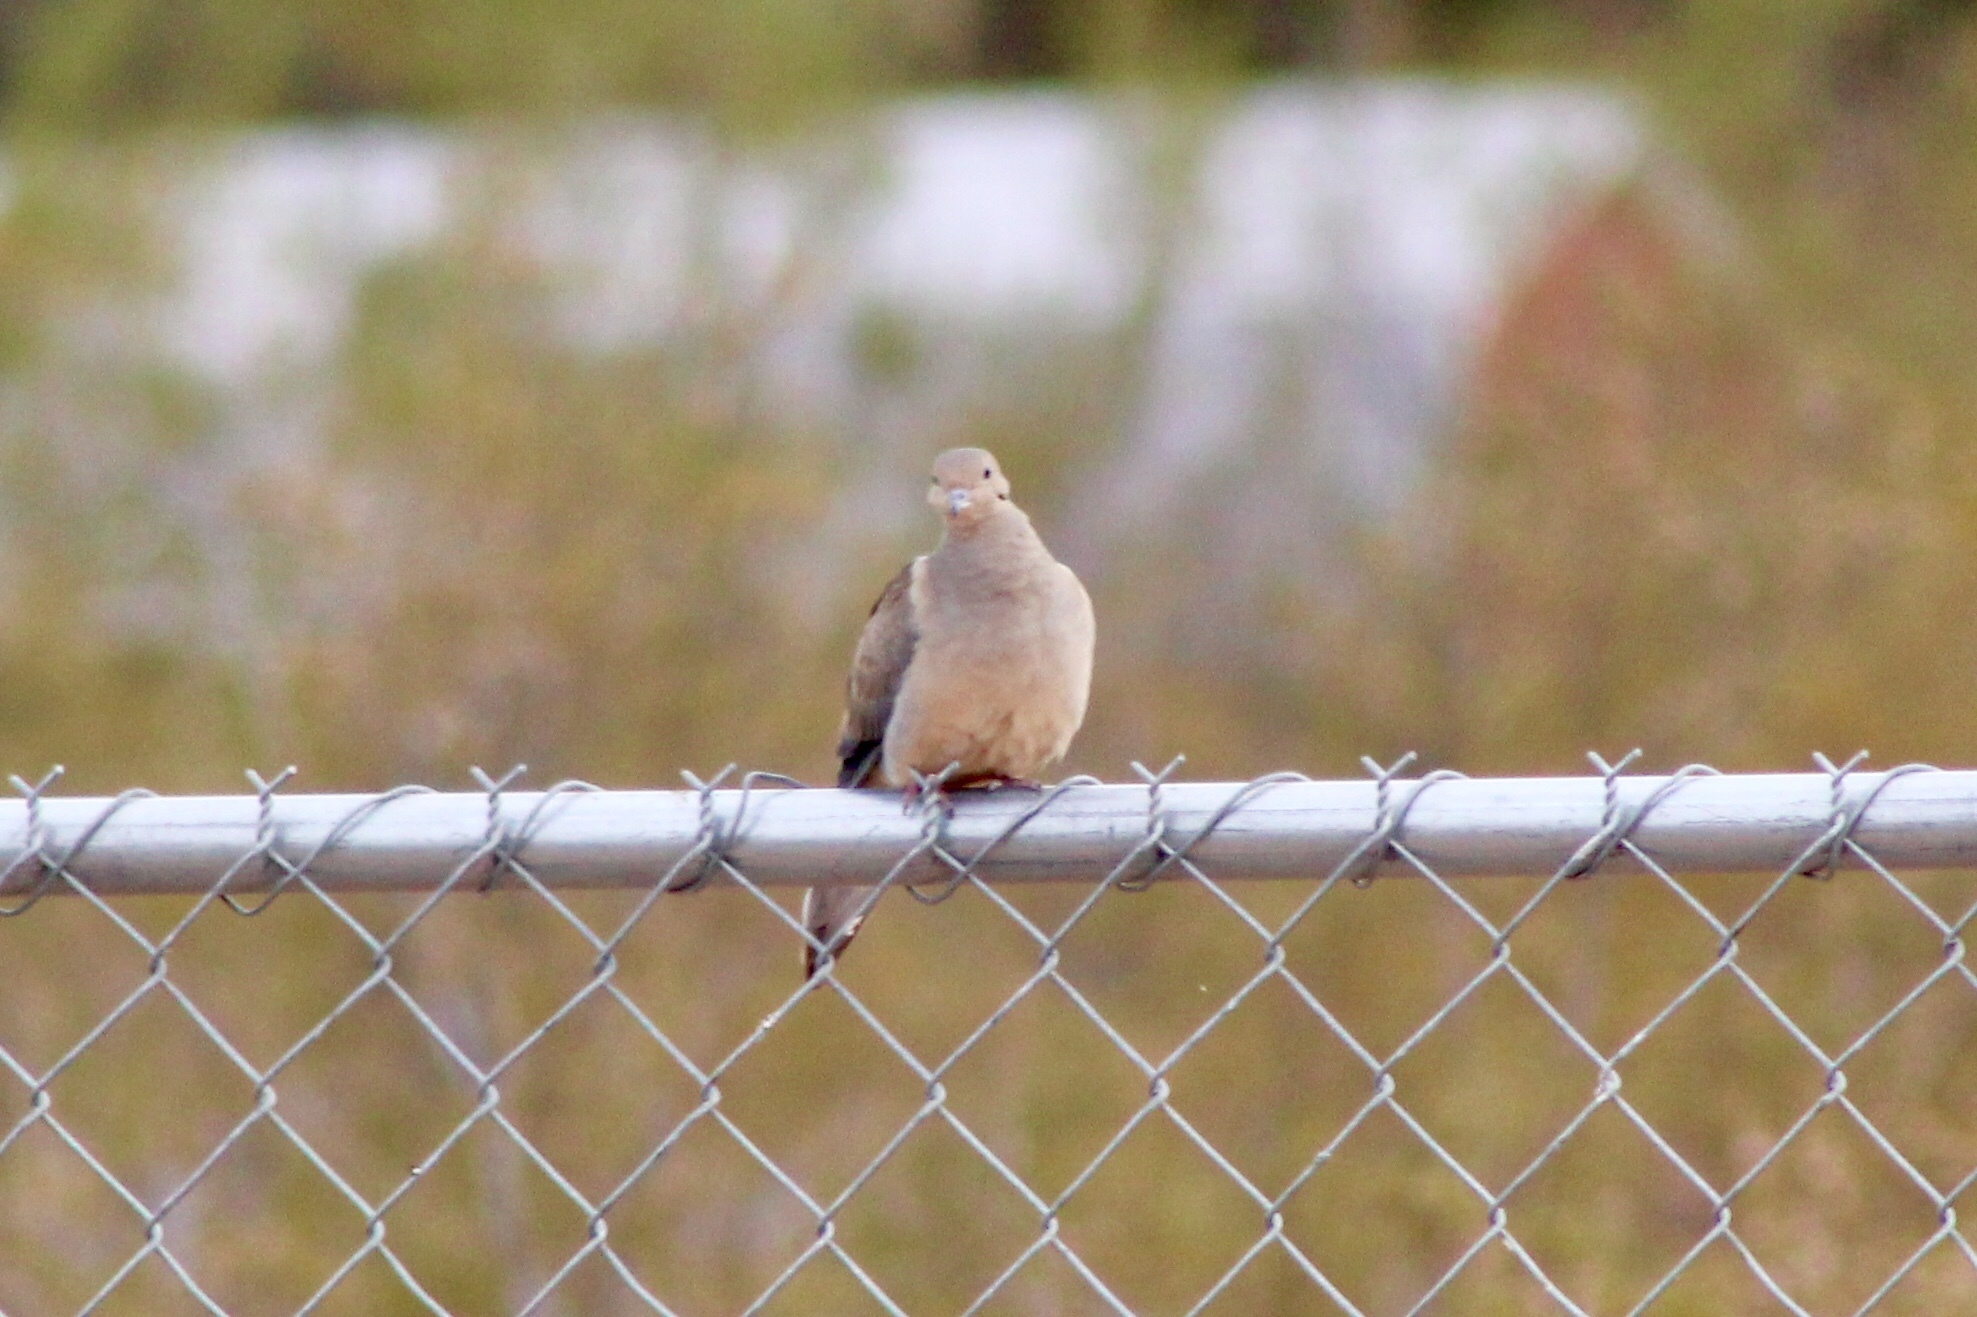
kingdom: Animalia
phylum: Chordata
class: Aves
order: Columbiformes
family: Columbidae
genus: Zenaida
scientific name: Zenaida macroura
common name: Mourning dove
